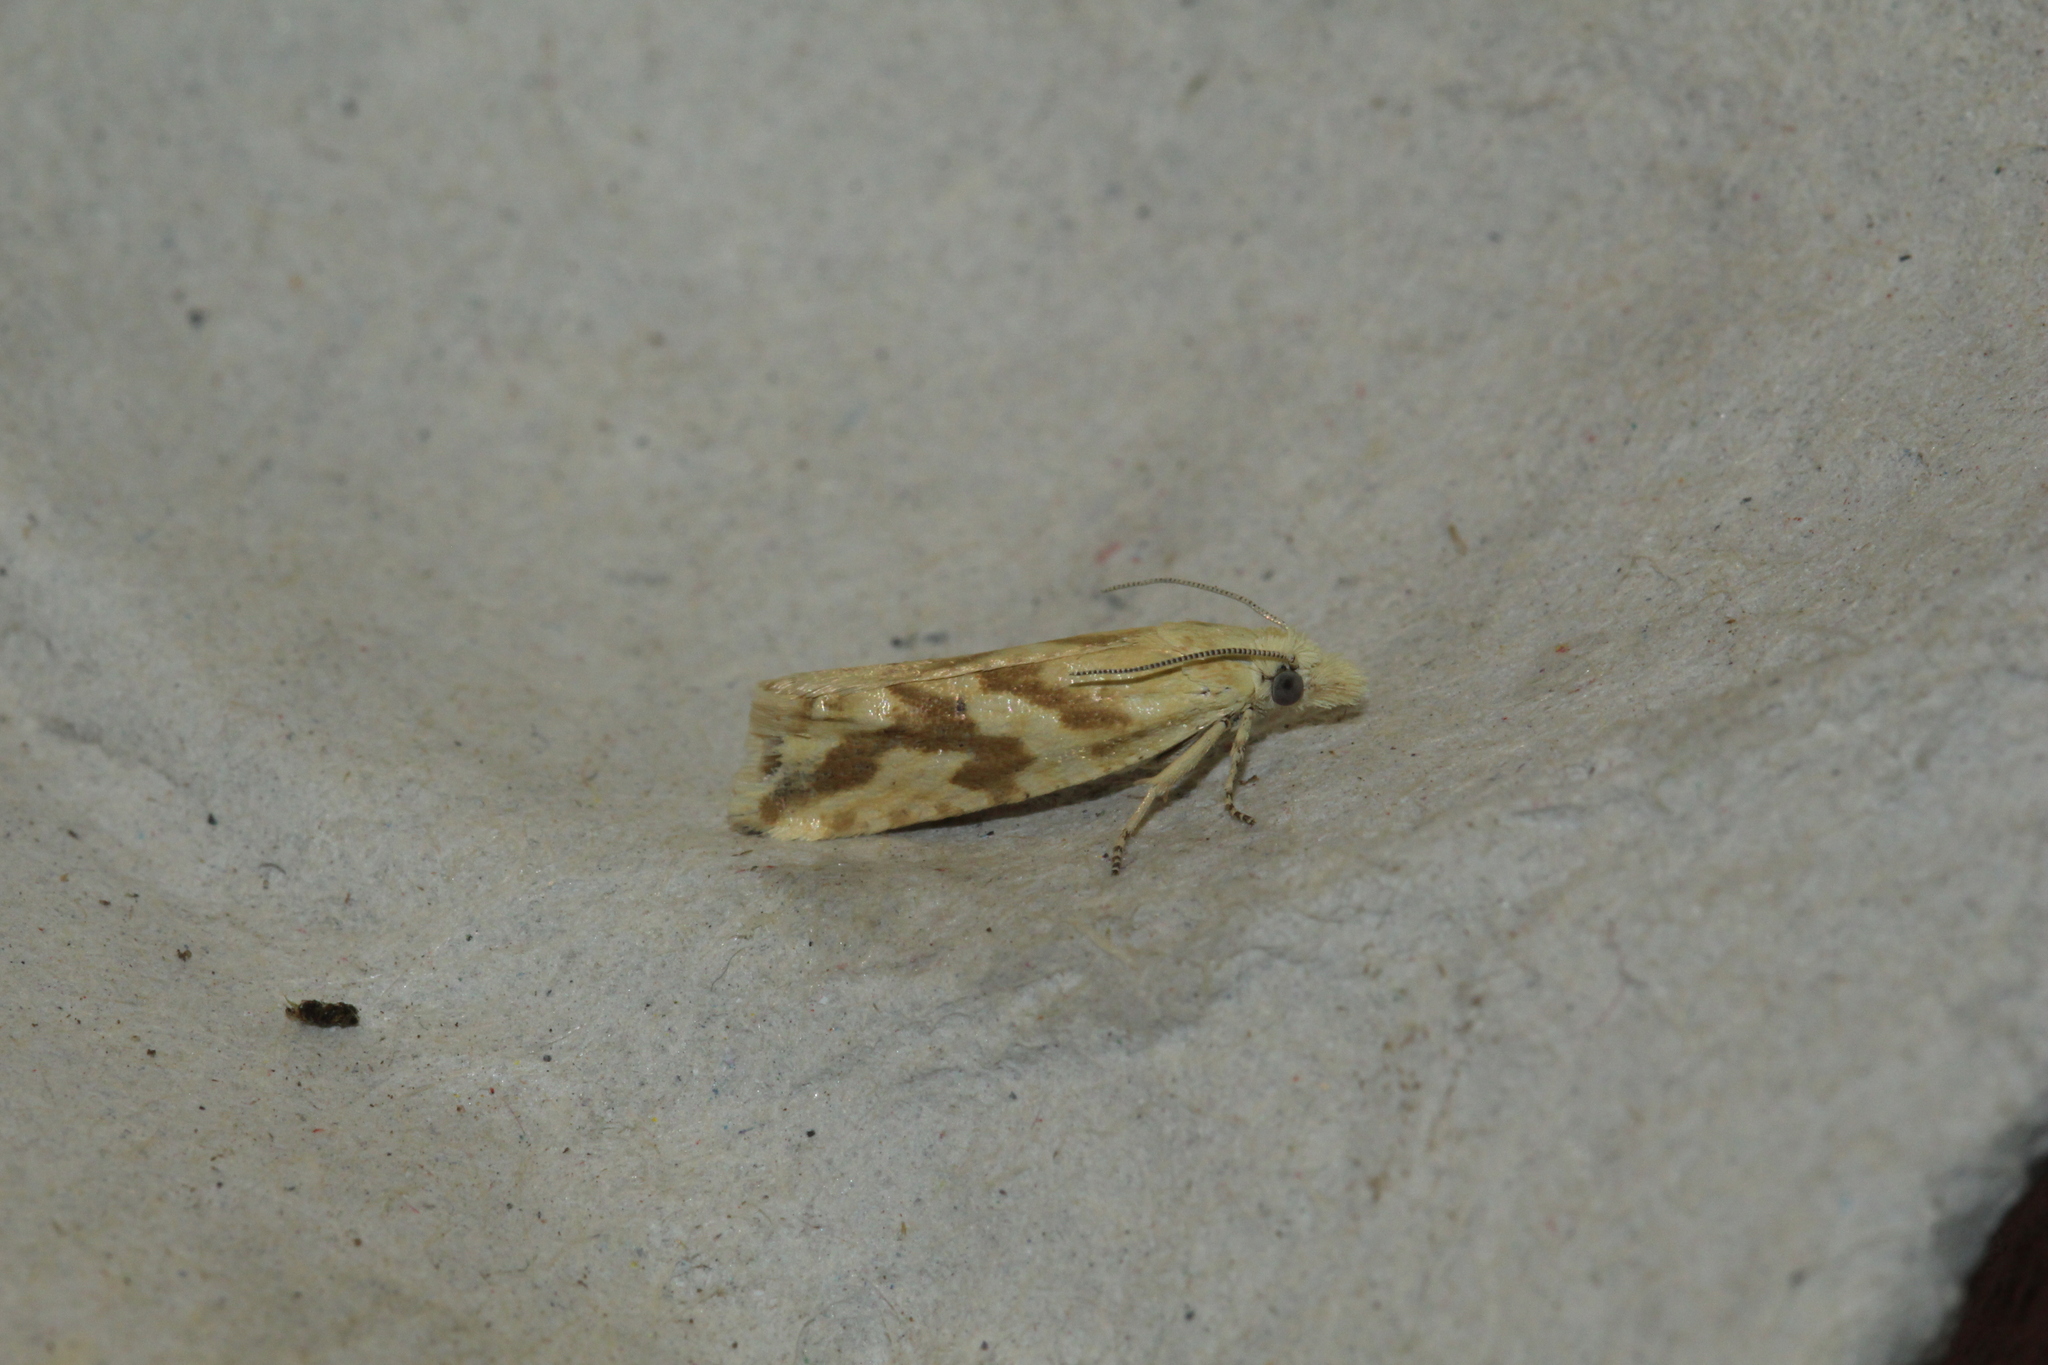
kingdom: Animalia
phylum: Arthropoda
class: Insecta
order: Lepidoptera
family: Tortricidae
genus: Thiodia
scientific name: Thiodia citrana
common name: Lemon bell
